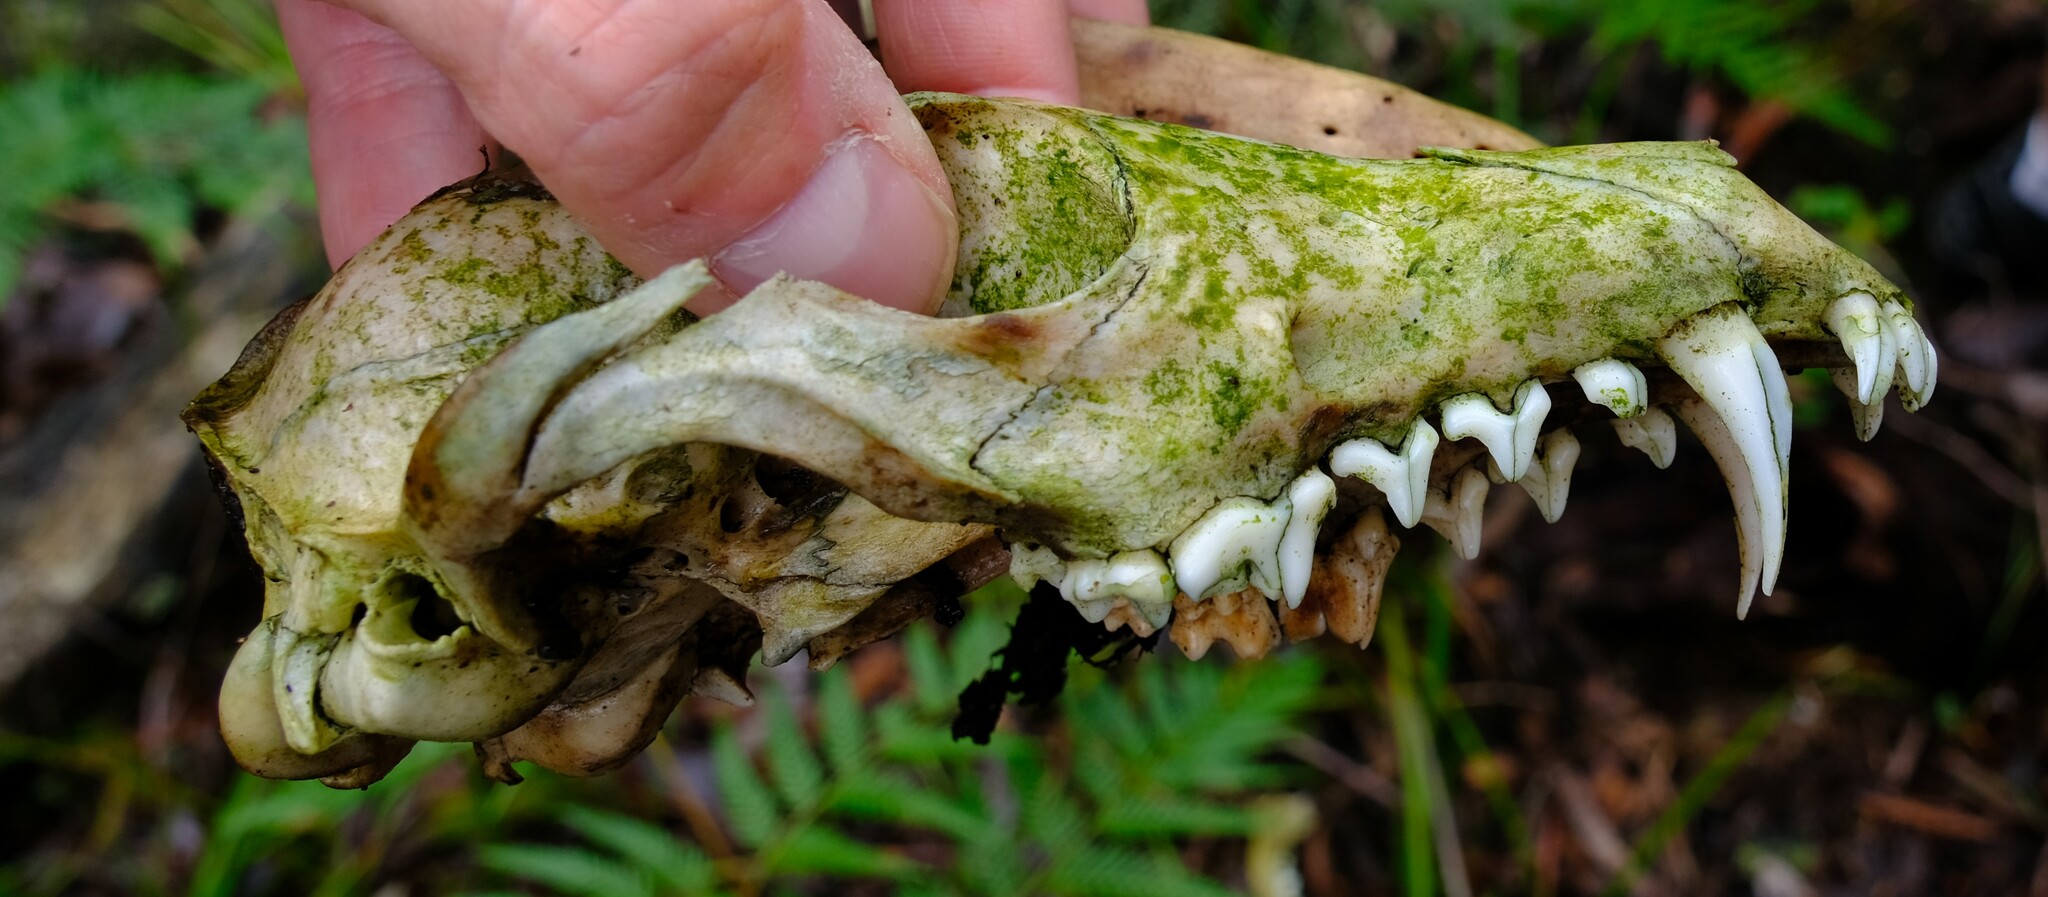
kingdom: Animalia
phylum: Chordata
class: Mammalia
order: Carnivora
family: Canidae
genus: Vulpes
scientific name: Vulpes vulpes
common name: Red fox
